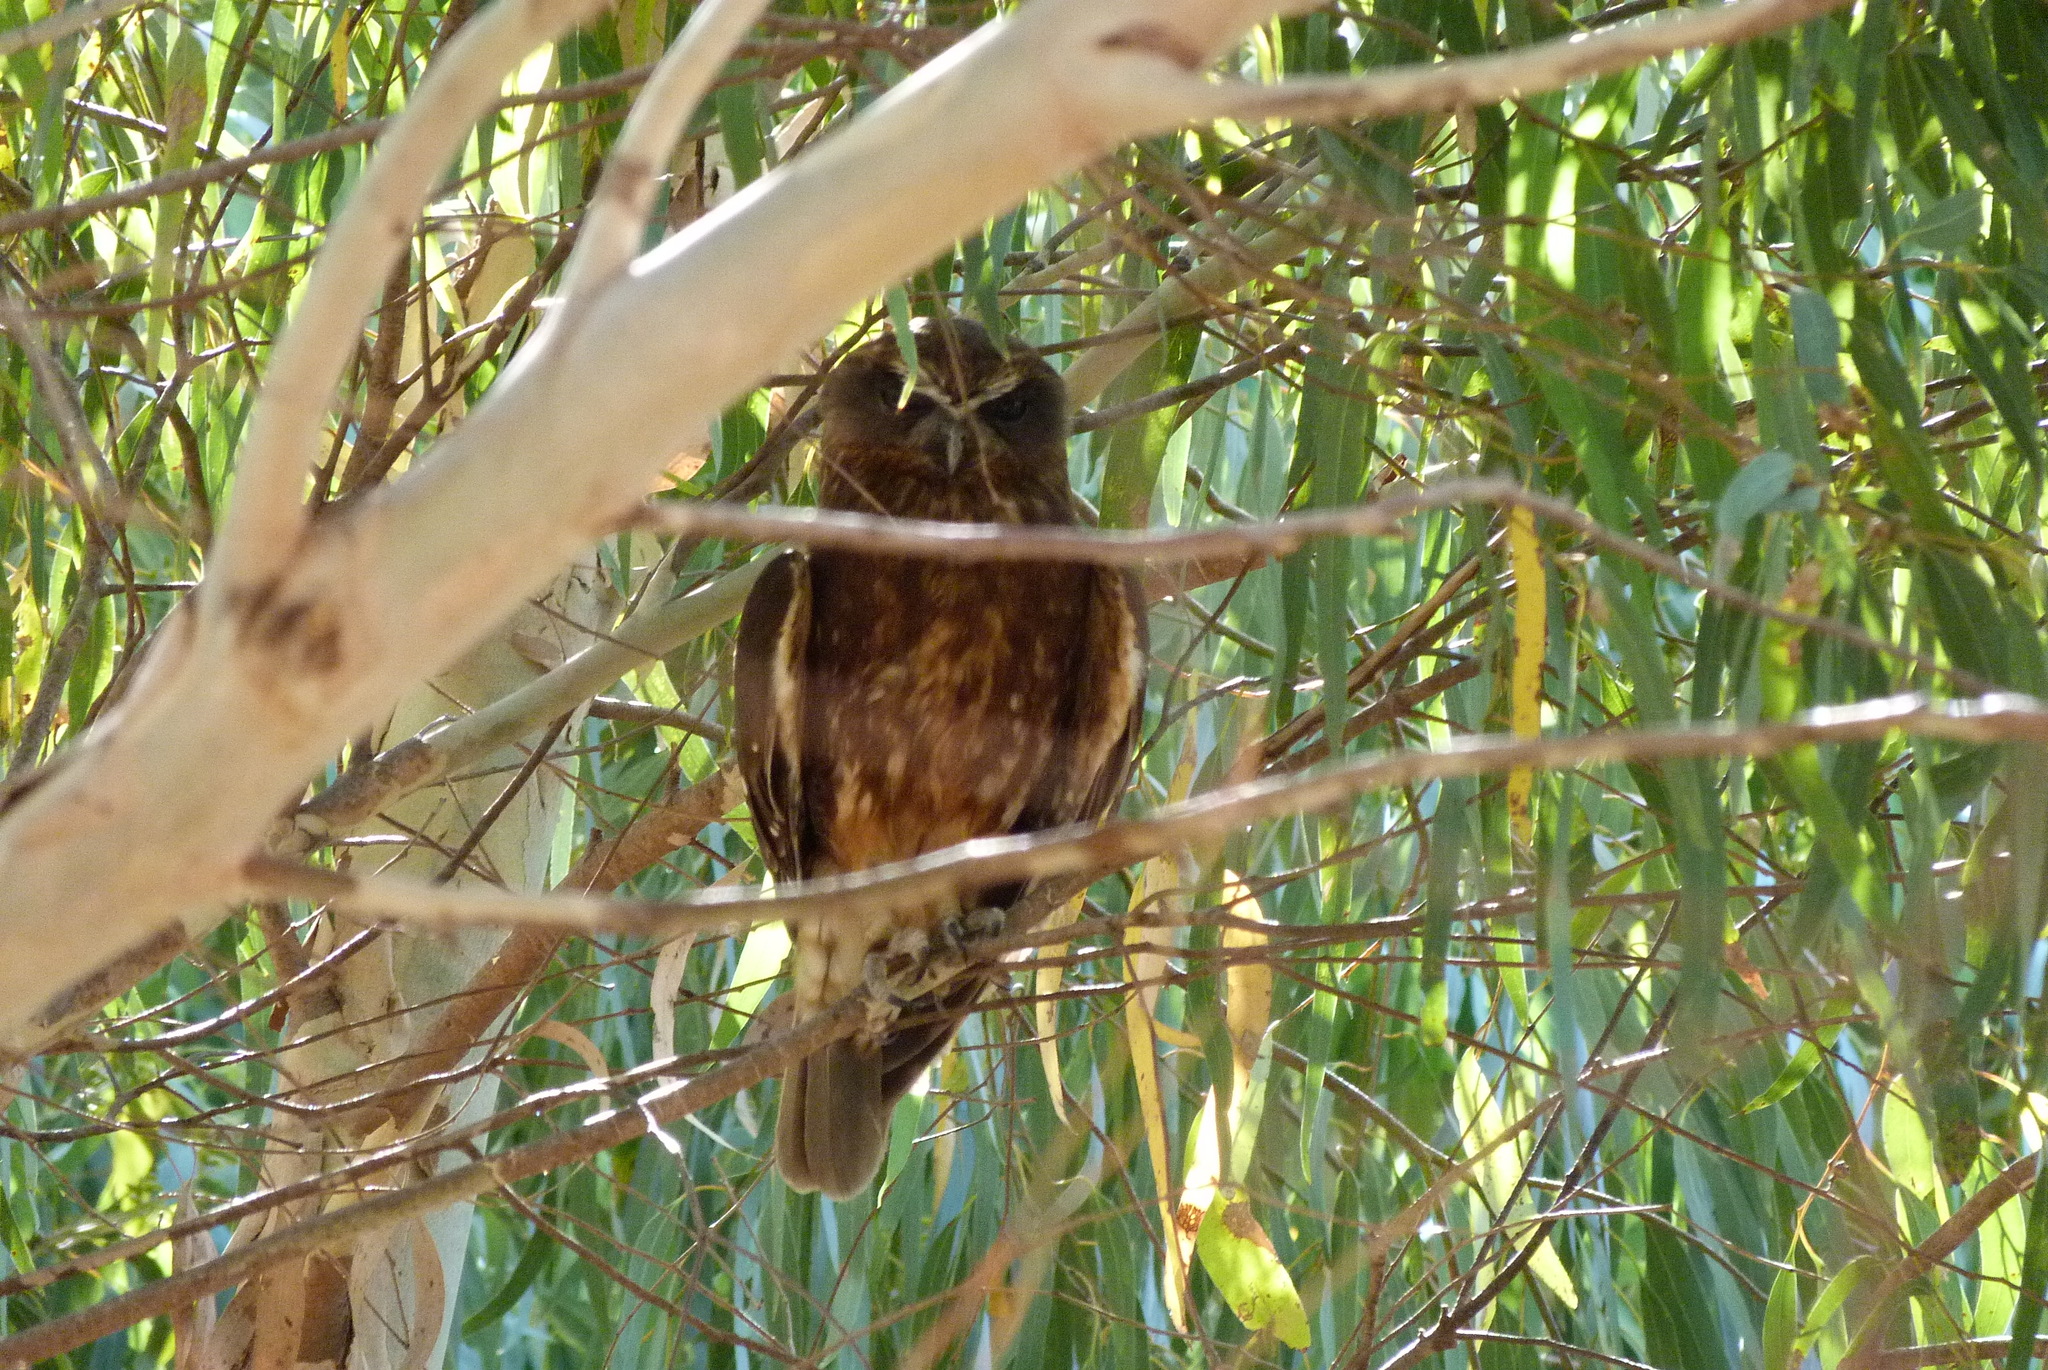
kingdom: Animalia
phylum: Chordata
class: Aves
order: Strigiformes
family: Strigidae
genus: Ninox
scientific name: Ninox boobook
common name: Southern boobook
